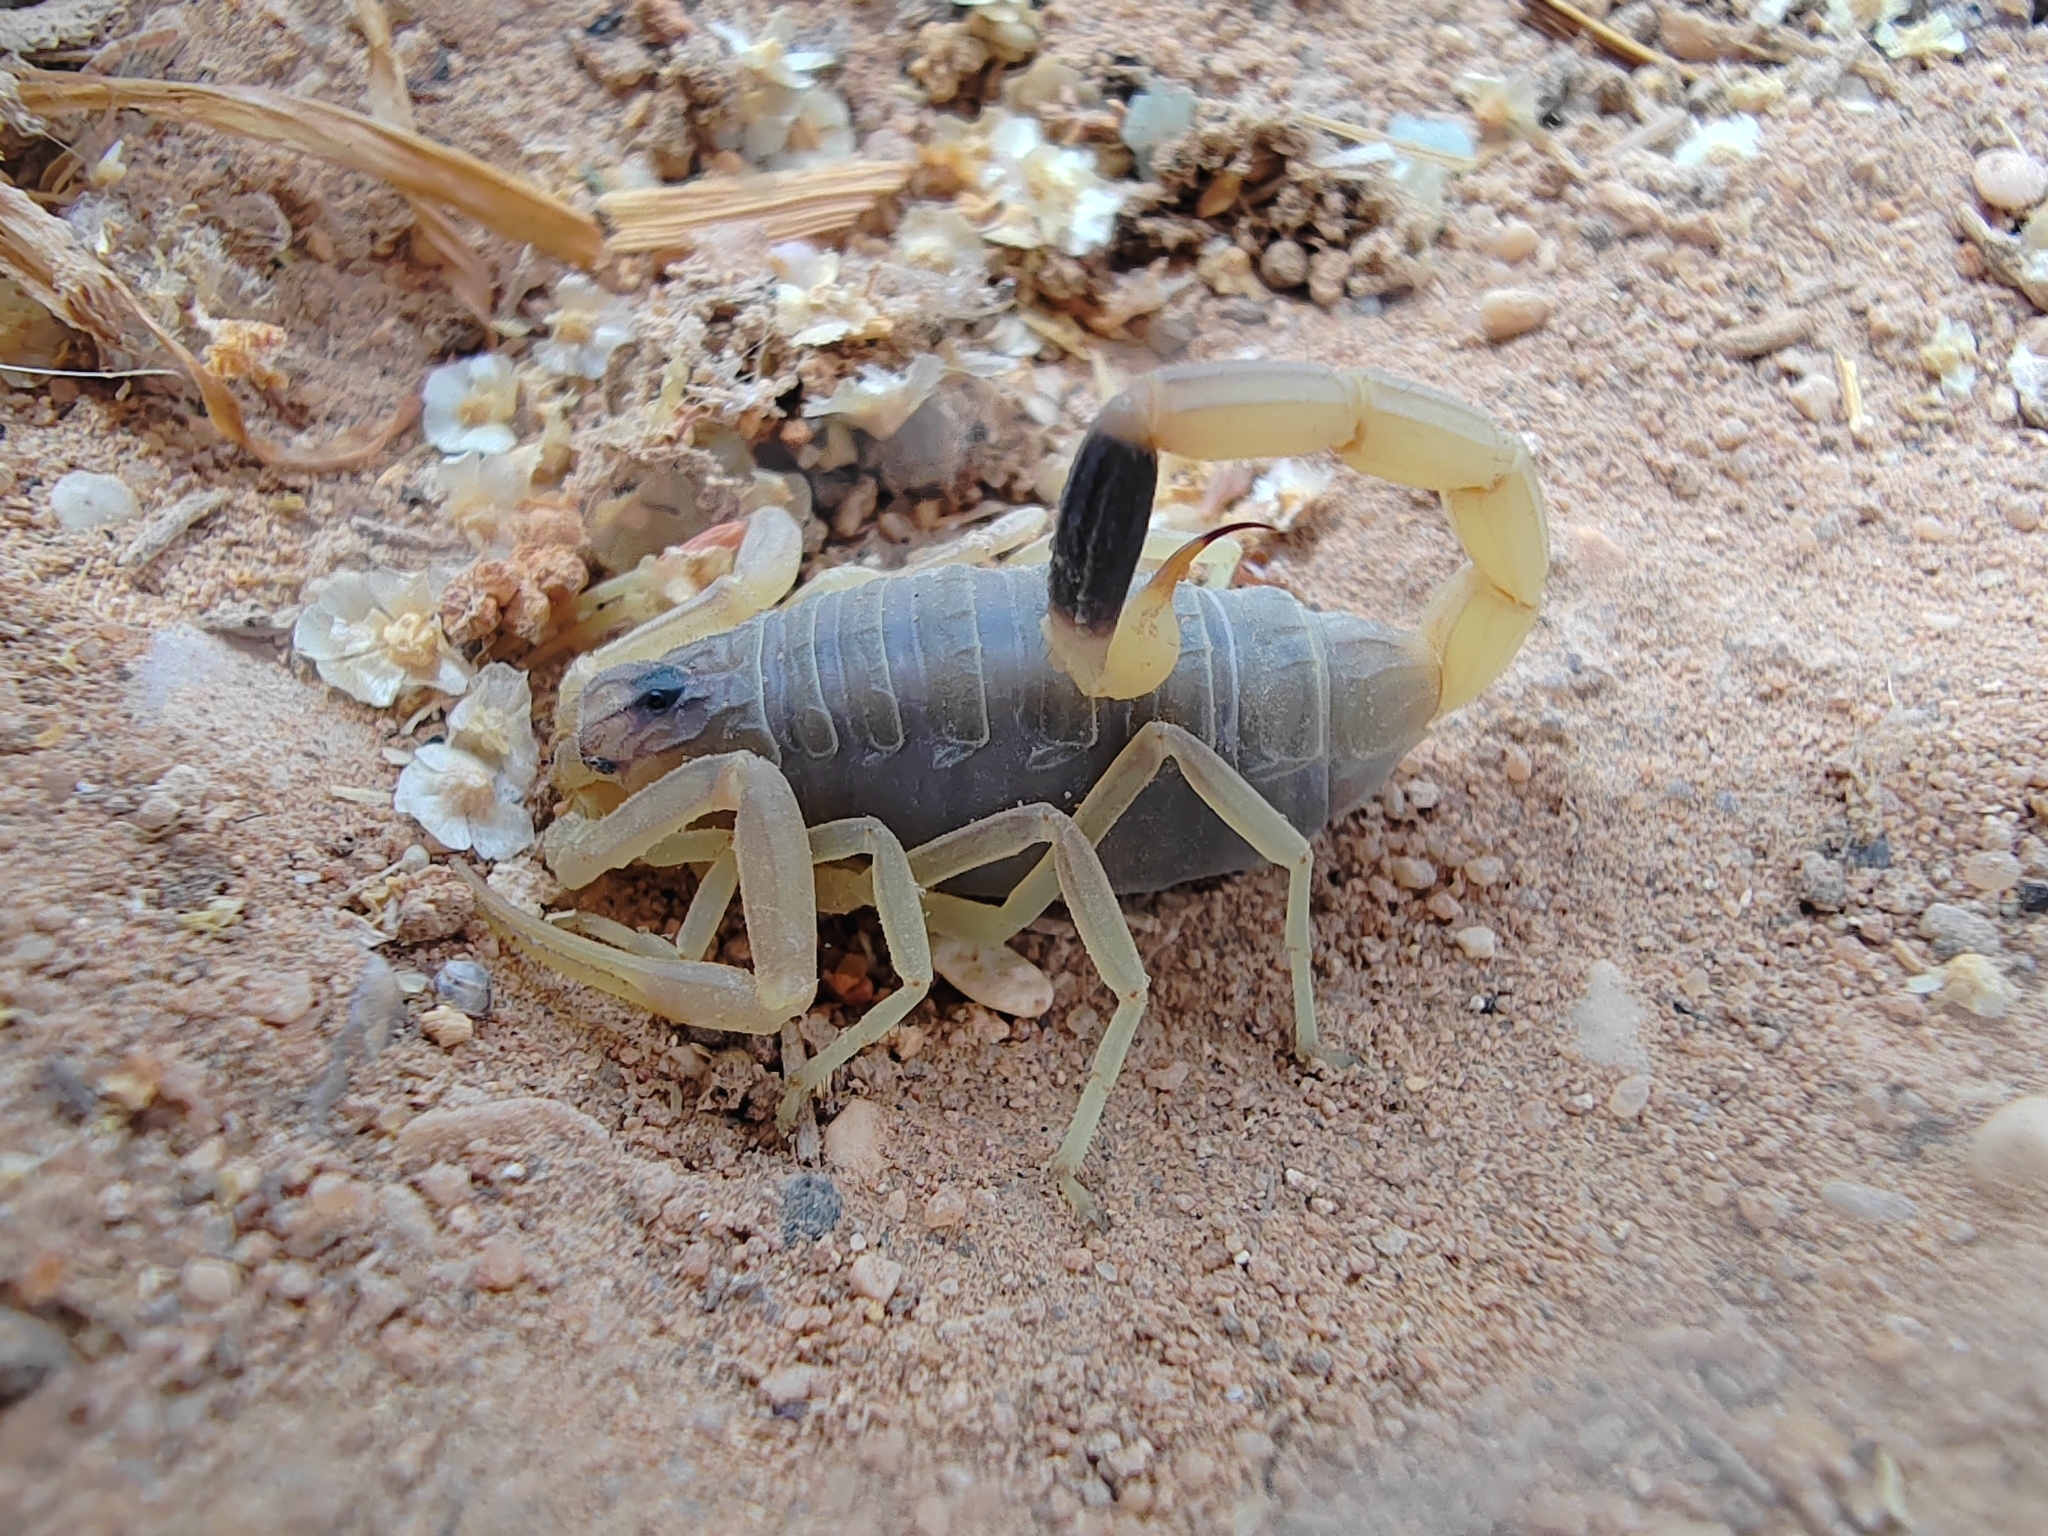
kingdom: Animalia
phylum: Arthropoda
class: Arachnida
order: Scorpiones
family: Buthidae
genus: Leiurus
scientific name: Leiurus quinquestriatus
